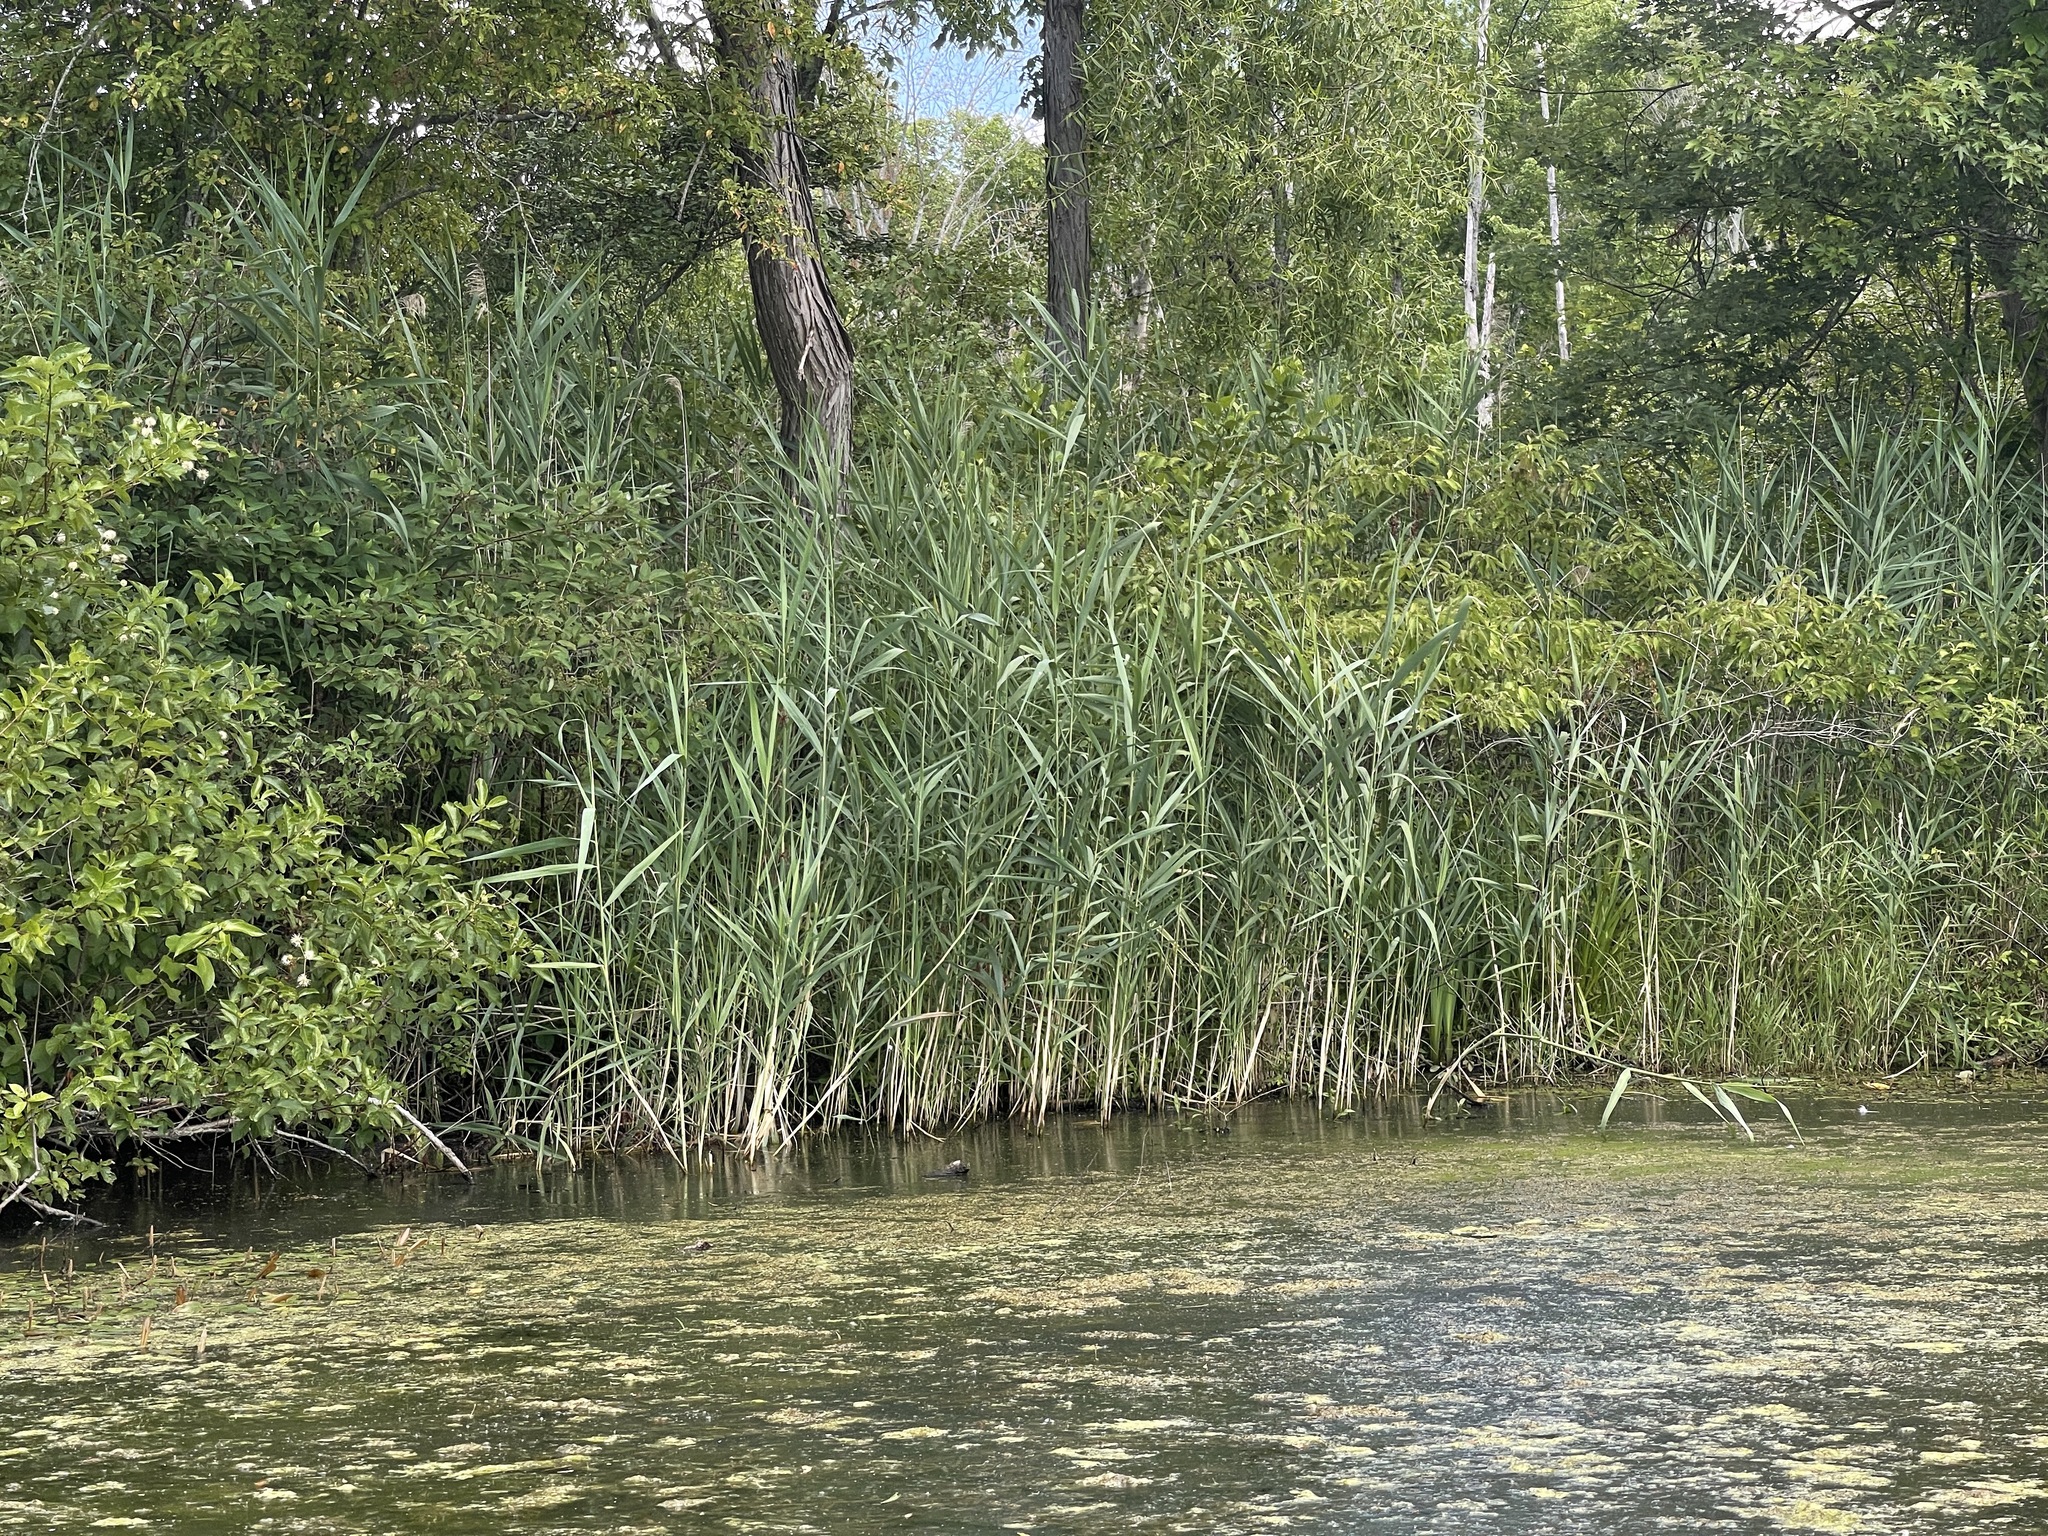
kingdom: Plantae
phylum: Tracheophyta
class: Liliopsida
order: Poales
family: Poaceae
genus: Phragmites
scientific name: Phragmites australis
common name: Common reed
